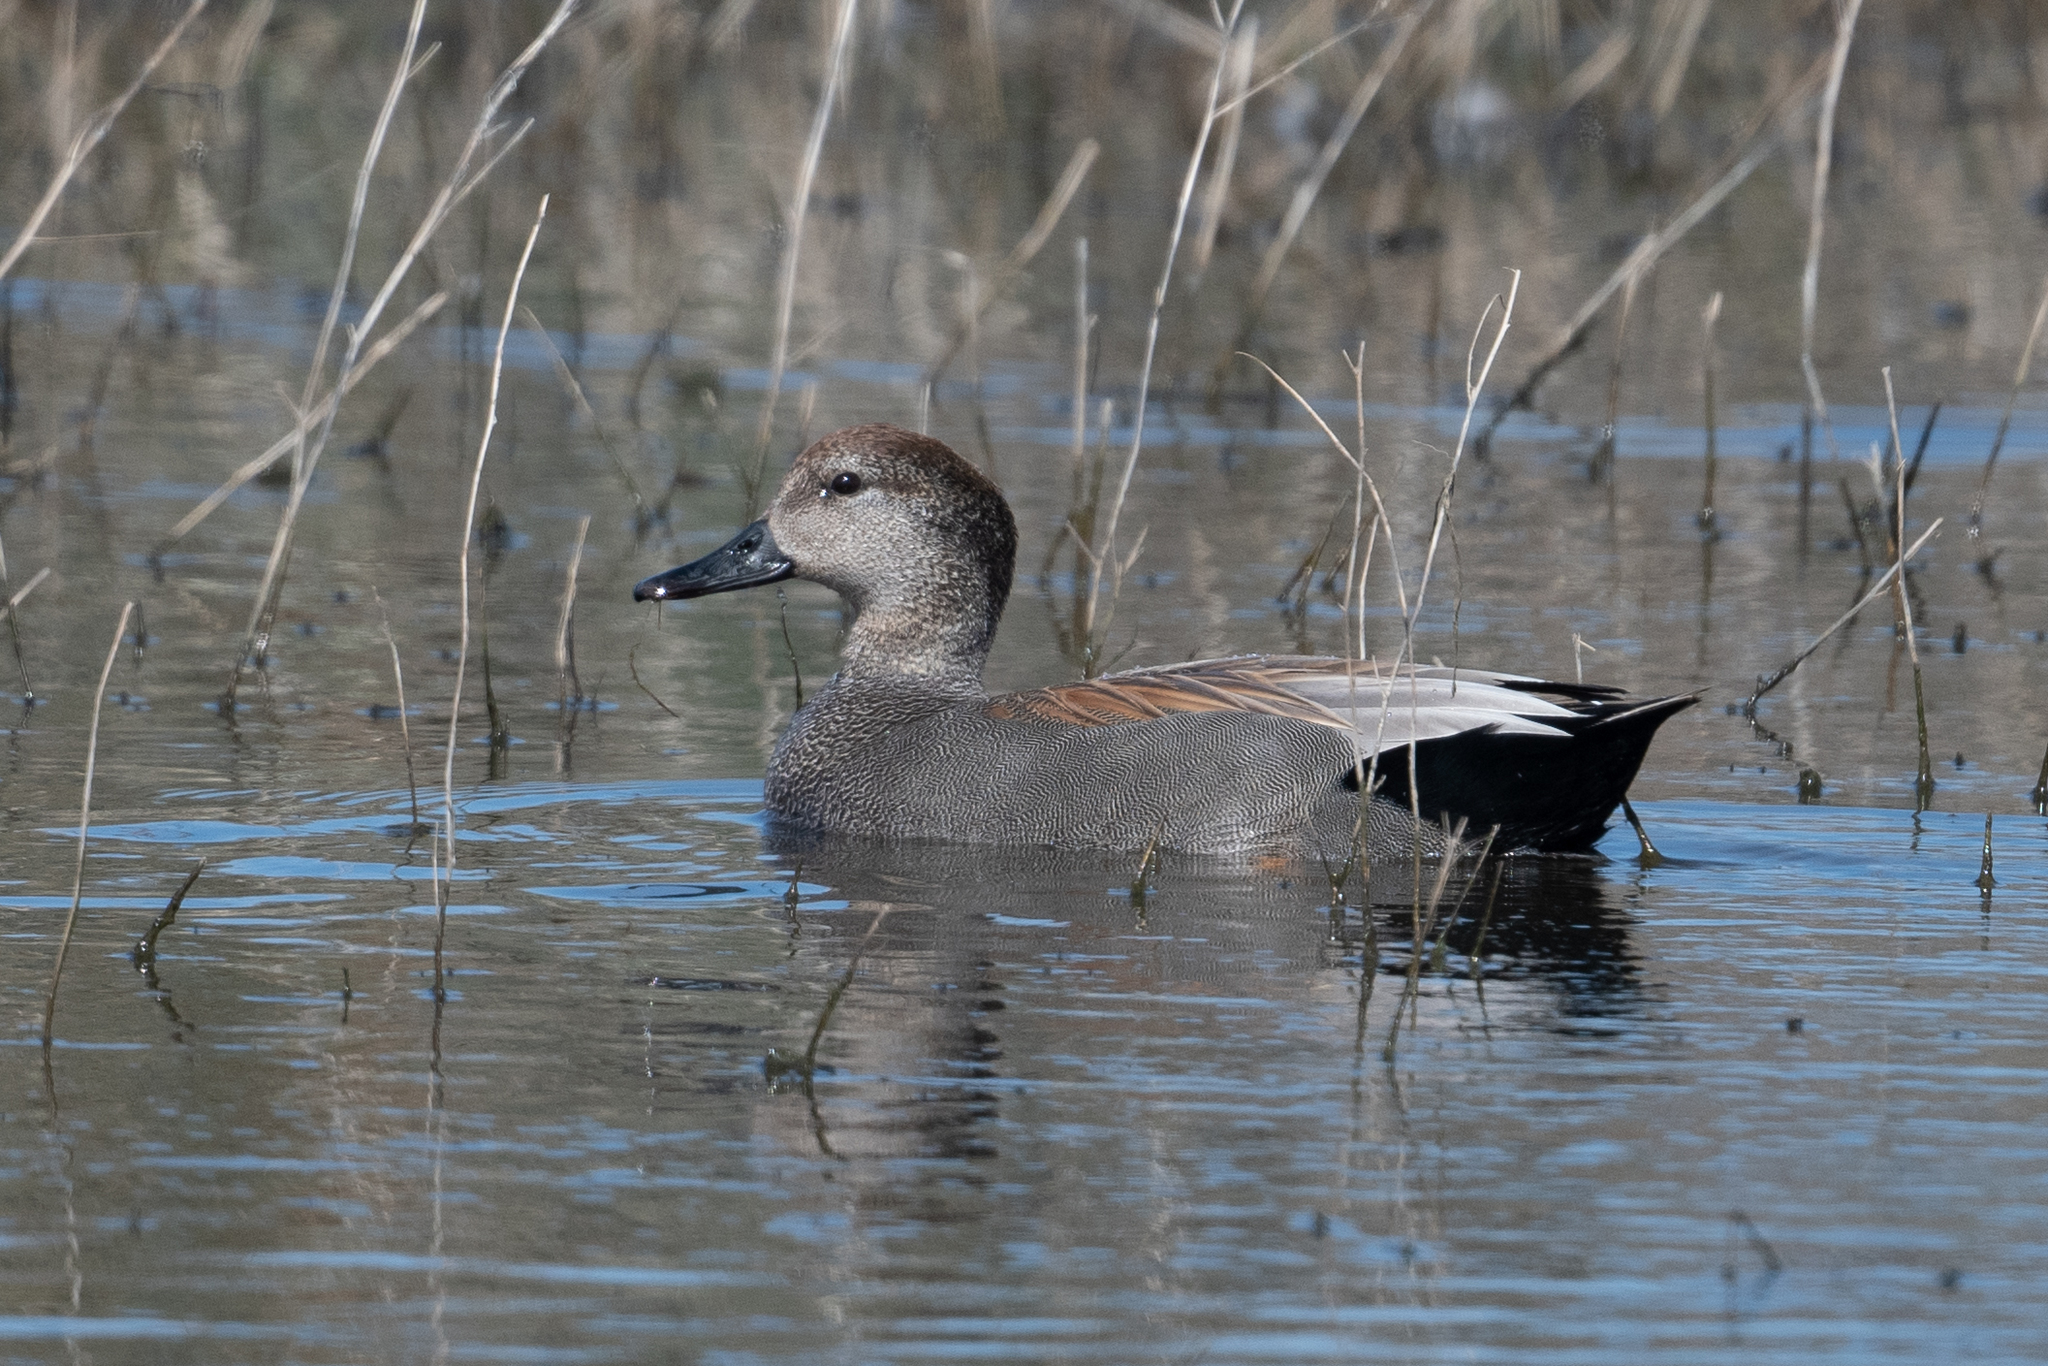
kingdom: Animalia
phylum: Chordata
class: Aves
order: Anseriformes
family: Anatidae
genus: Mareca
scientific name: Mareca strepera
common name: Gadwall
